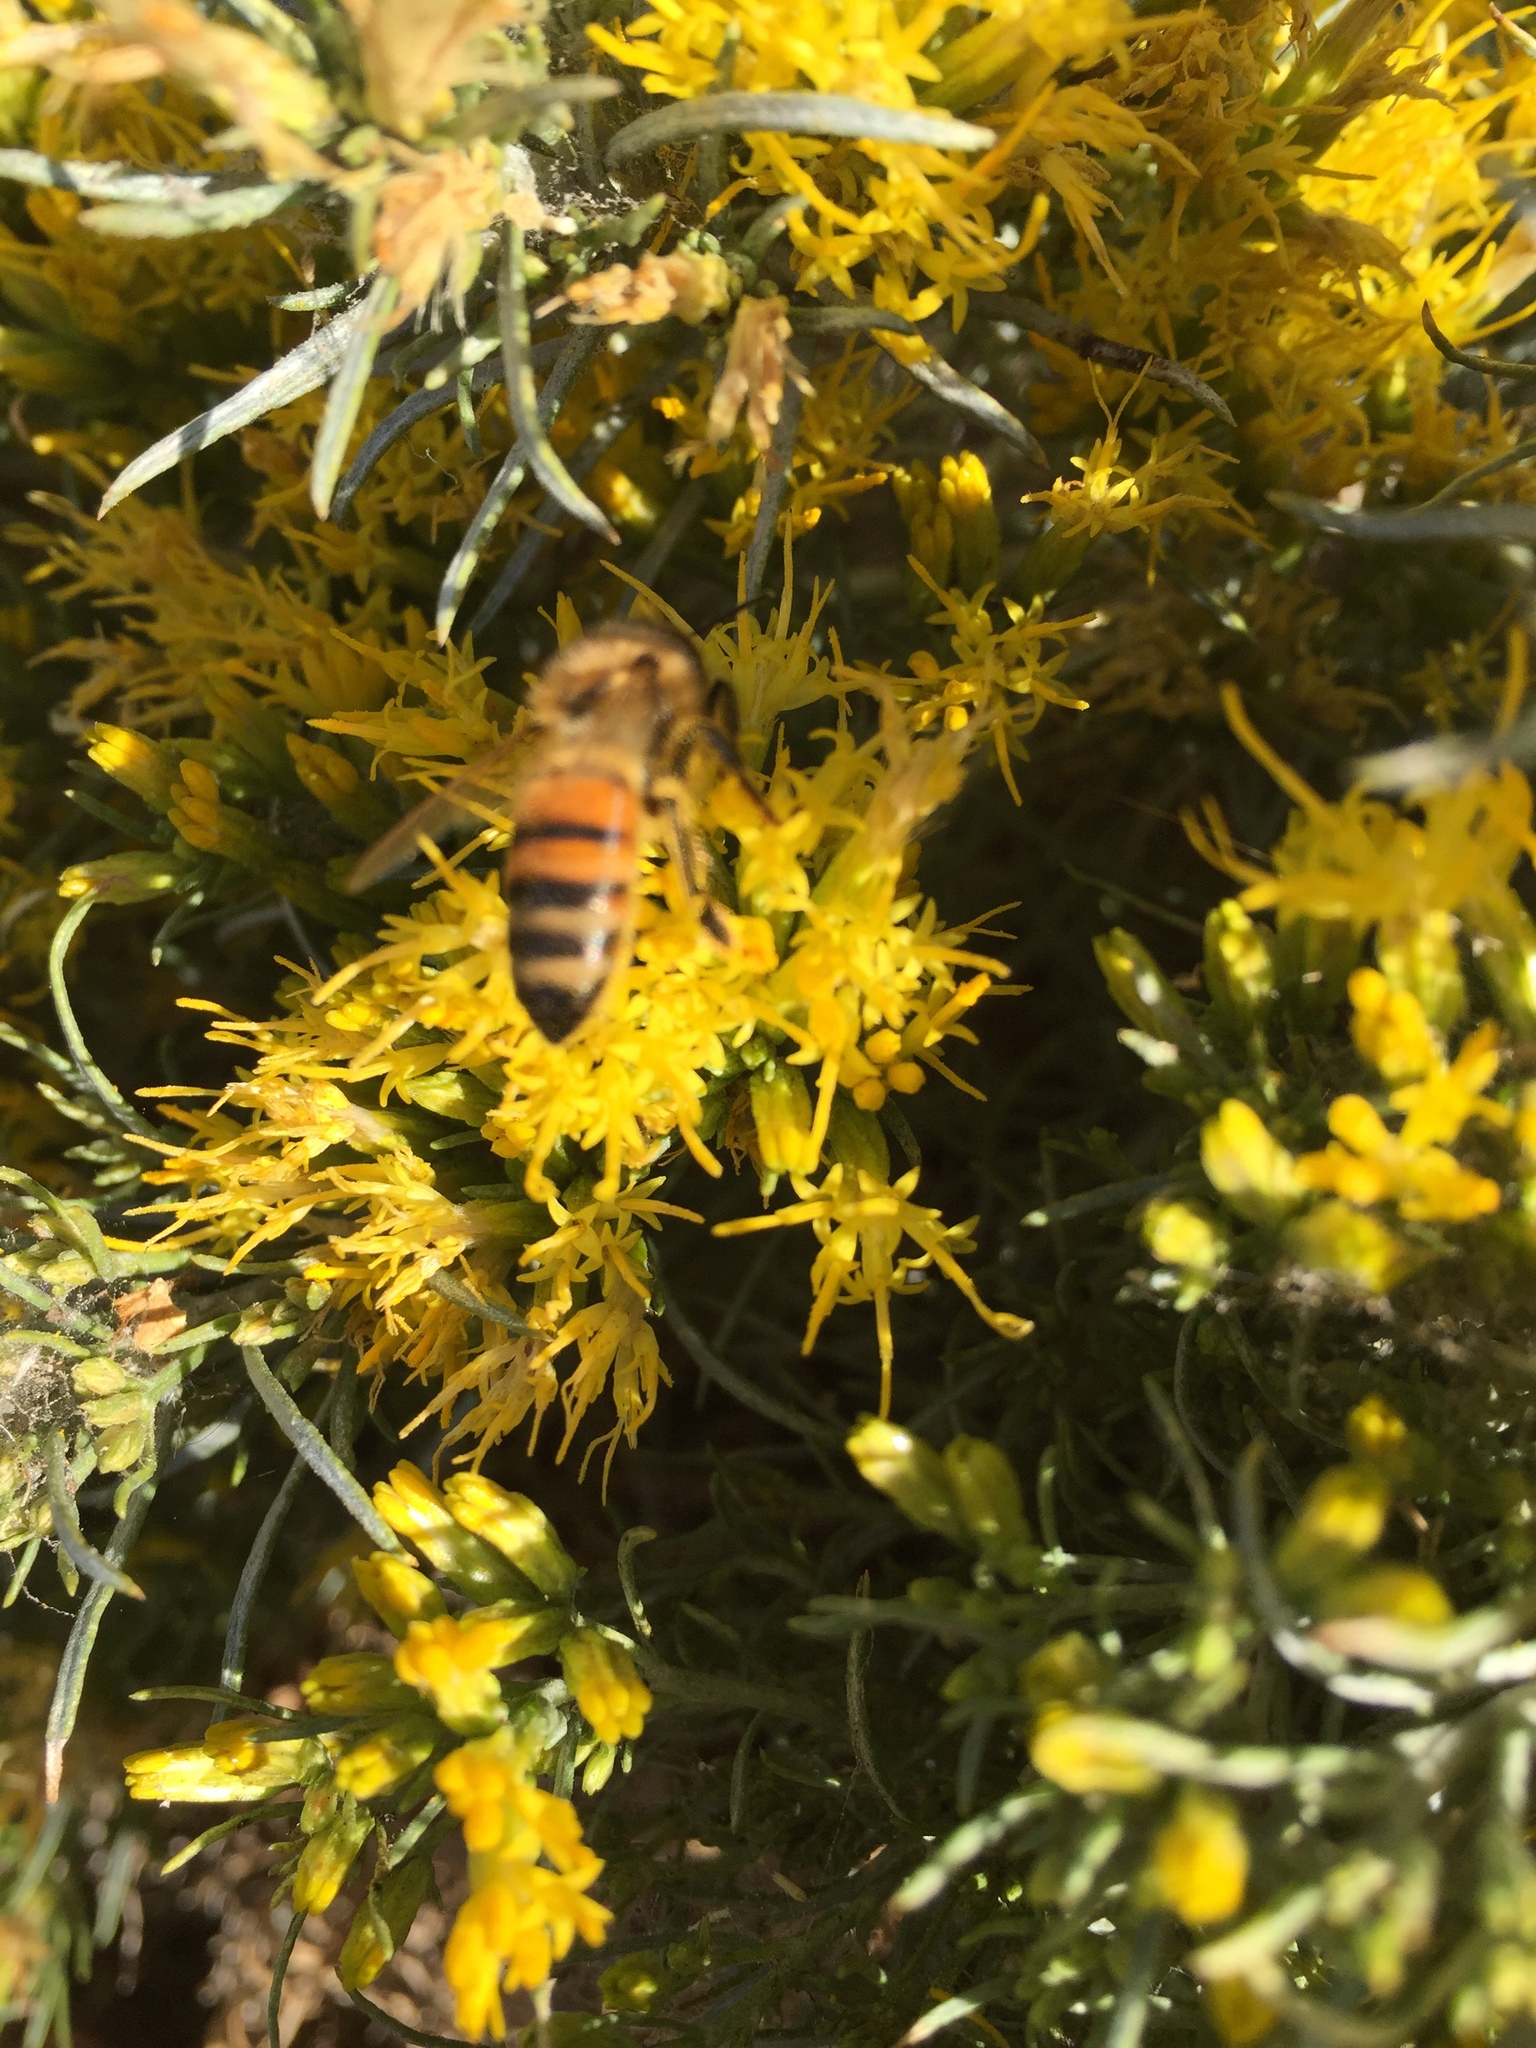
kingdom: Animalia
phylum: Arthropoda
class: Insecta
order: Hymenoptera
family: Apidae
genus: Apis
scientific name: Apis mellifera
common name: Honey bee
